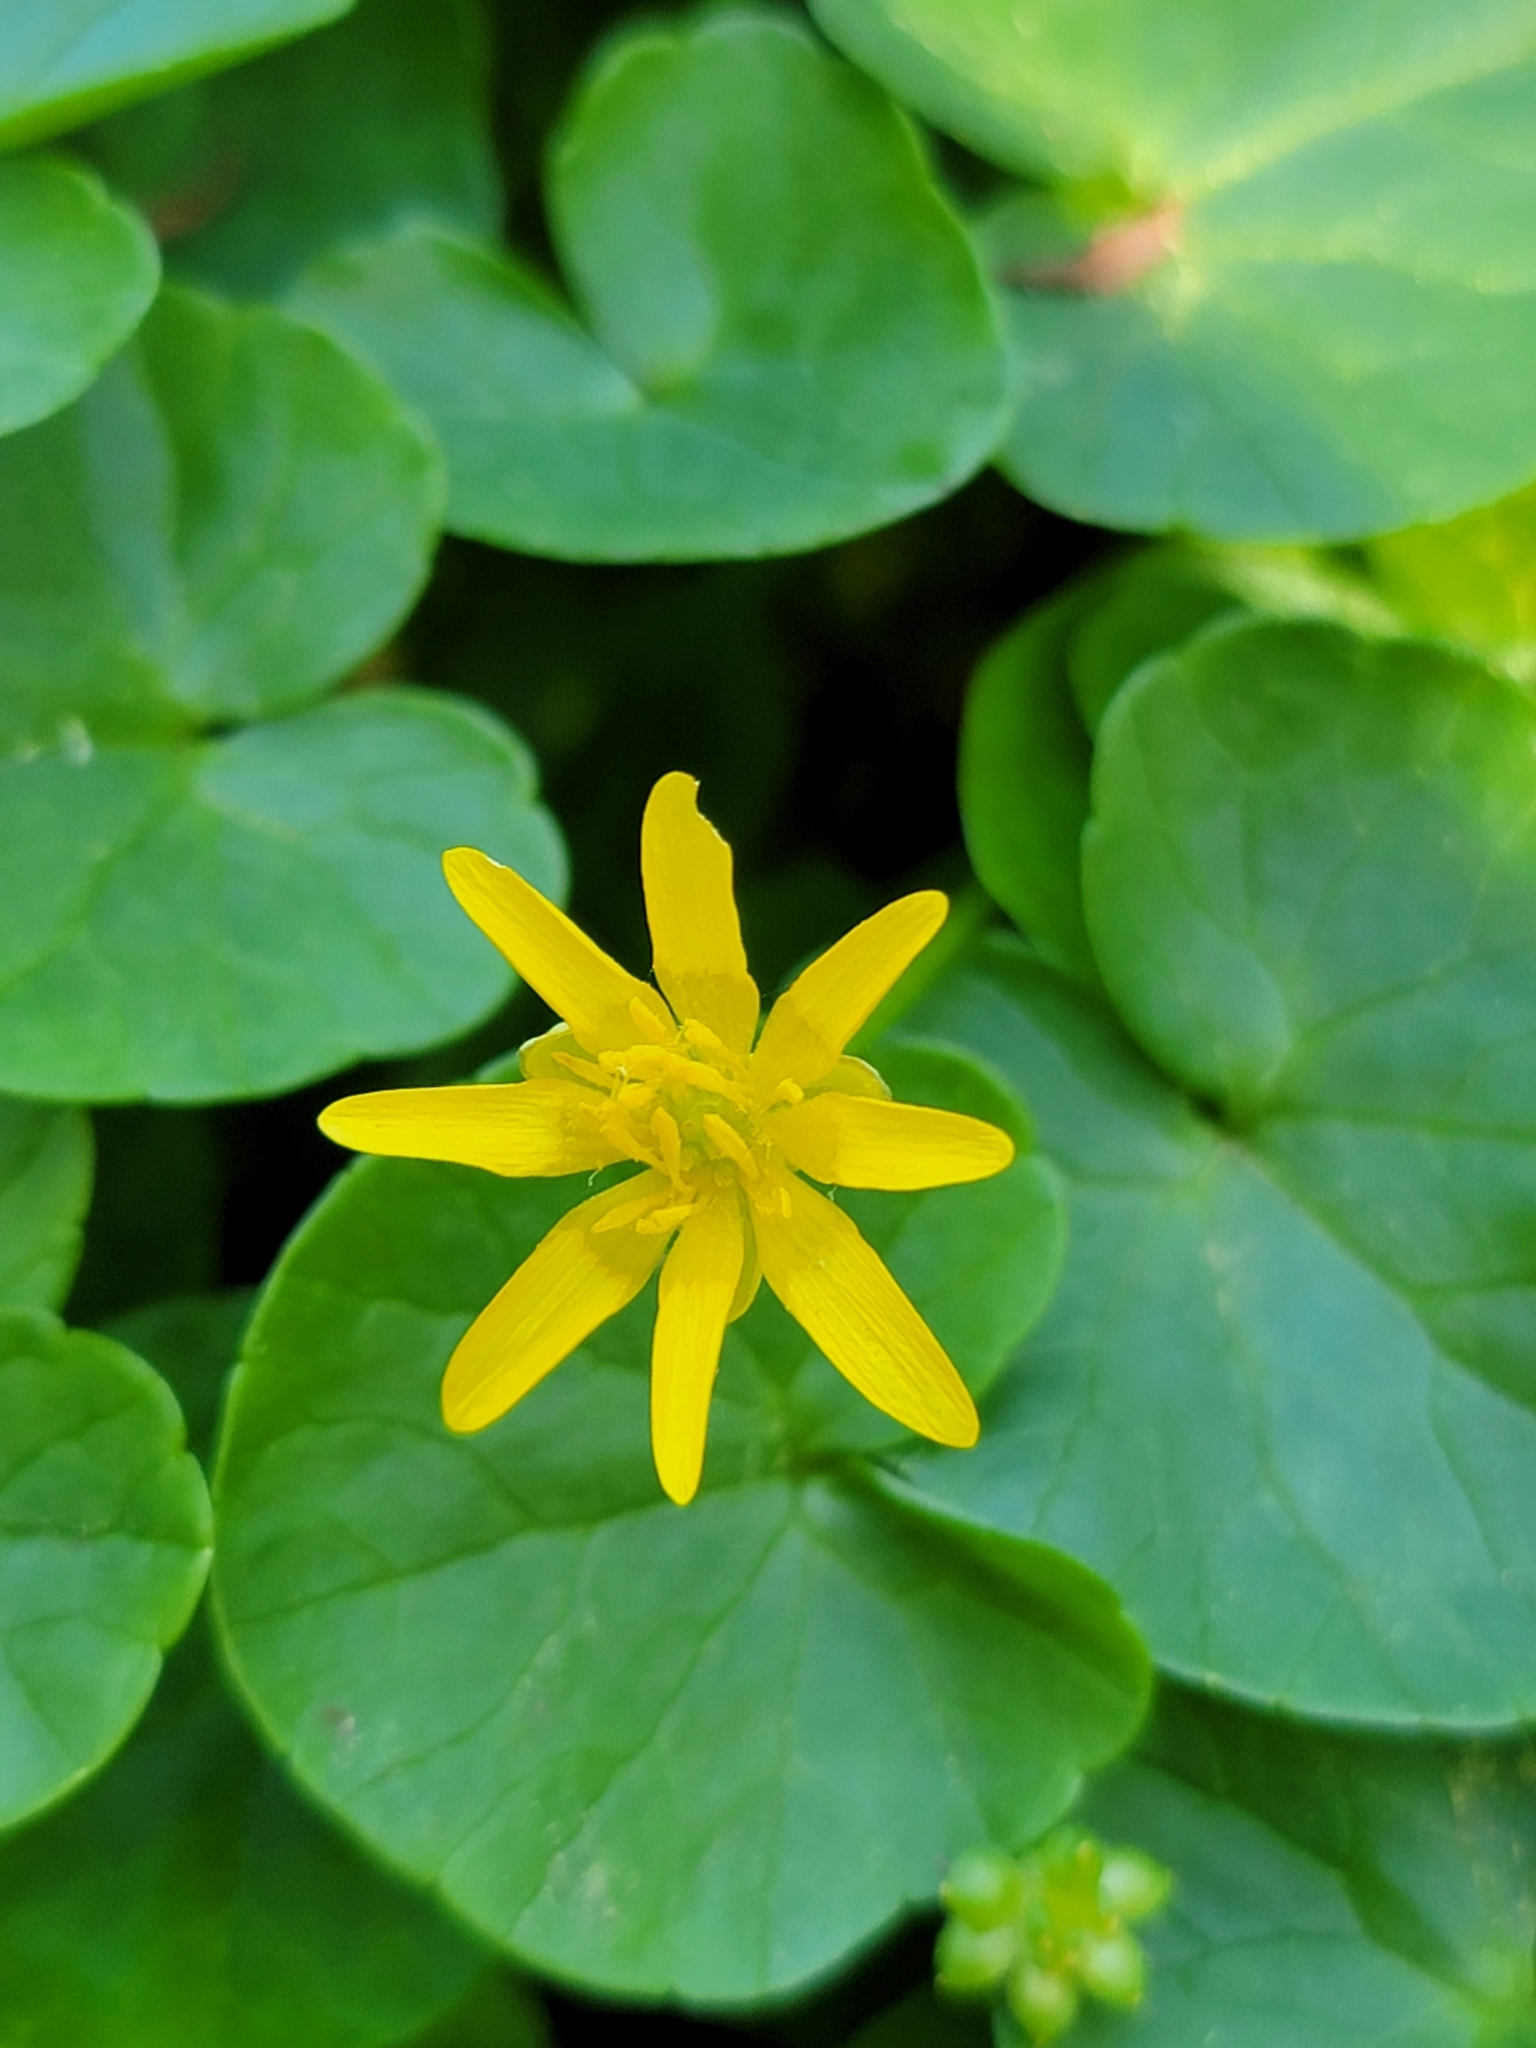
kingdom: Plantae
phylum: Tracheophyta
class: Magnoliopsida
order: Ranunculales
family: Ranunculaceae
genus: Ficaria
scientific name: Ficaria verna
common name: Lesser celandine
